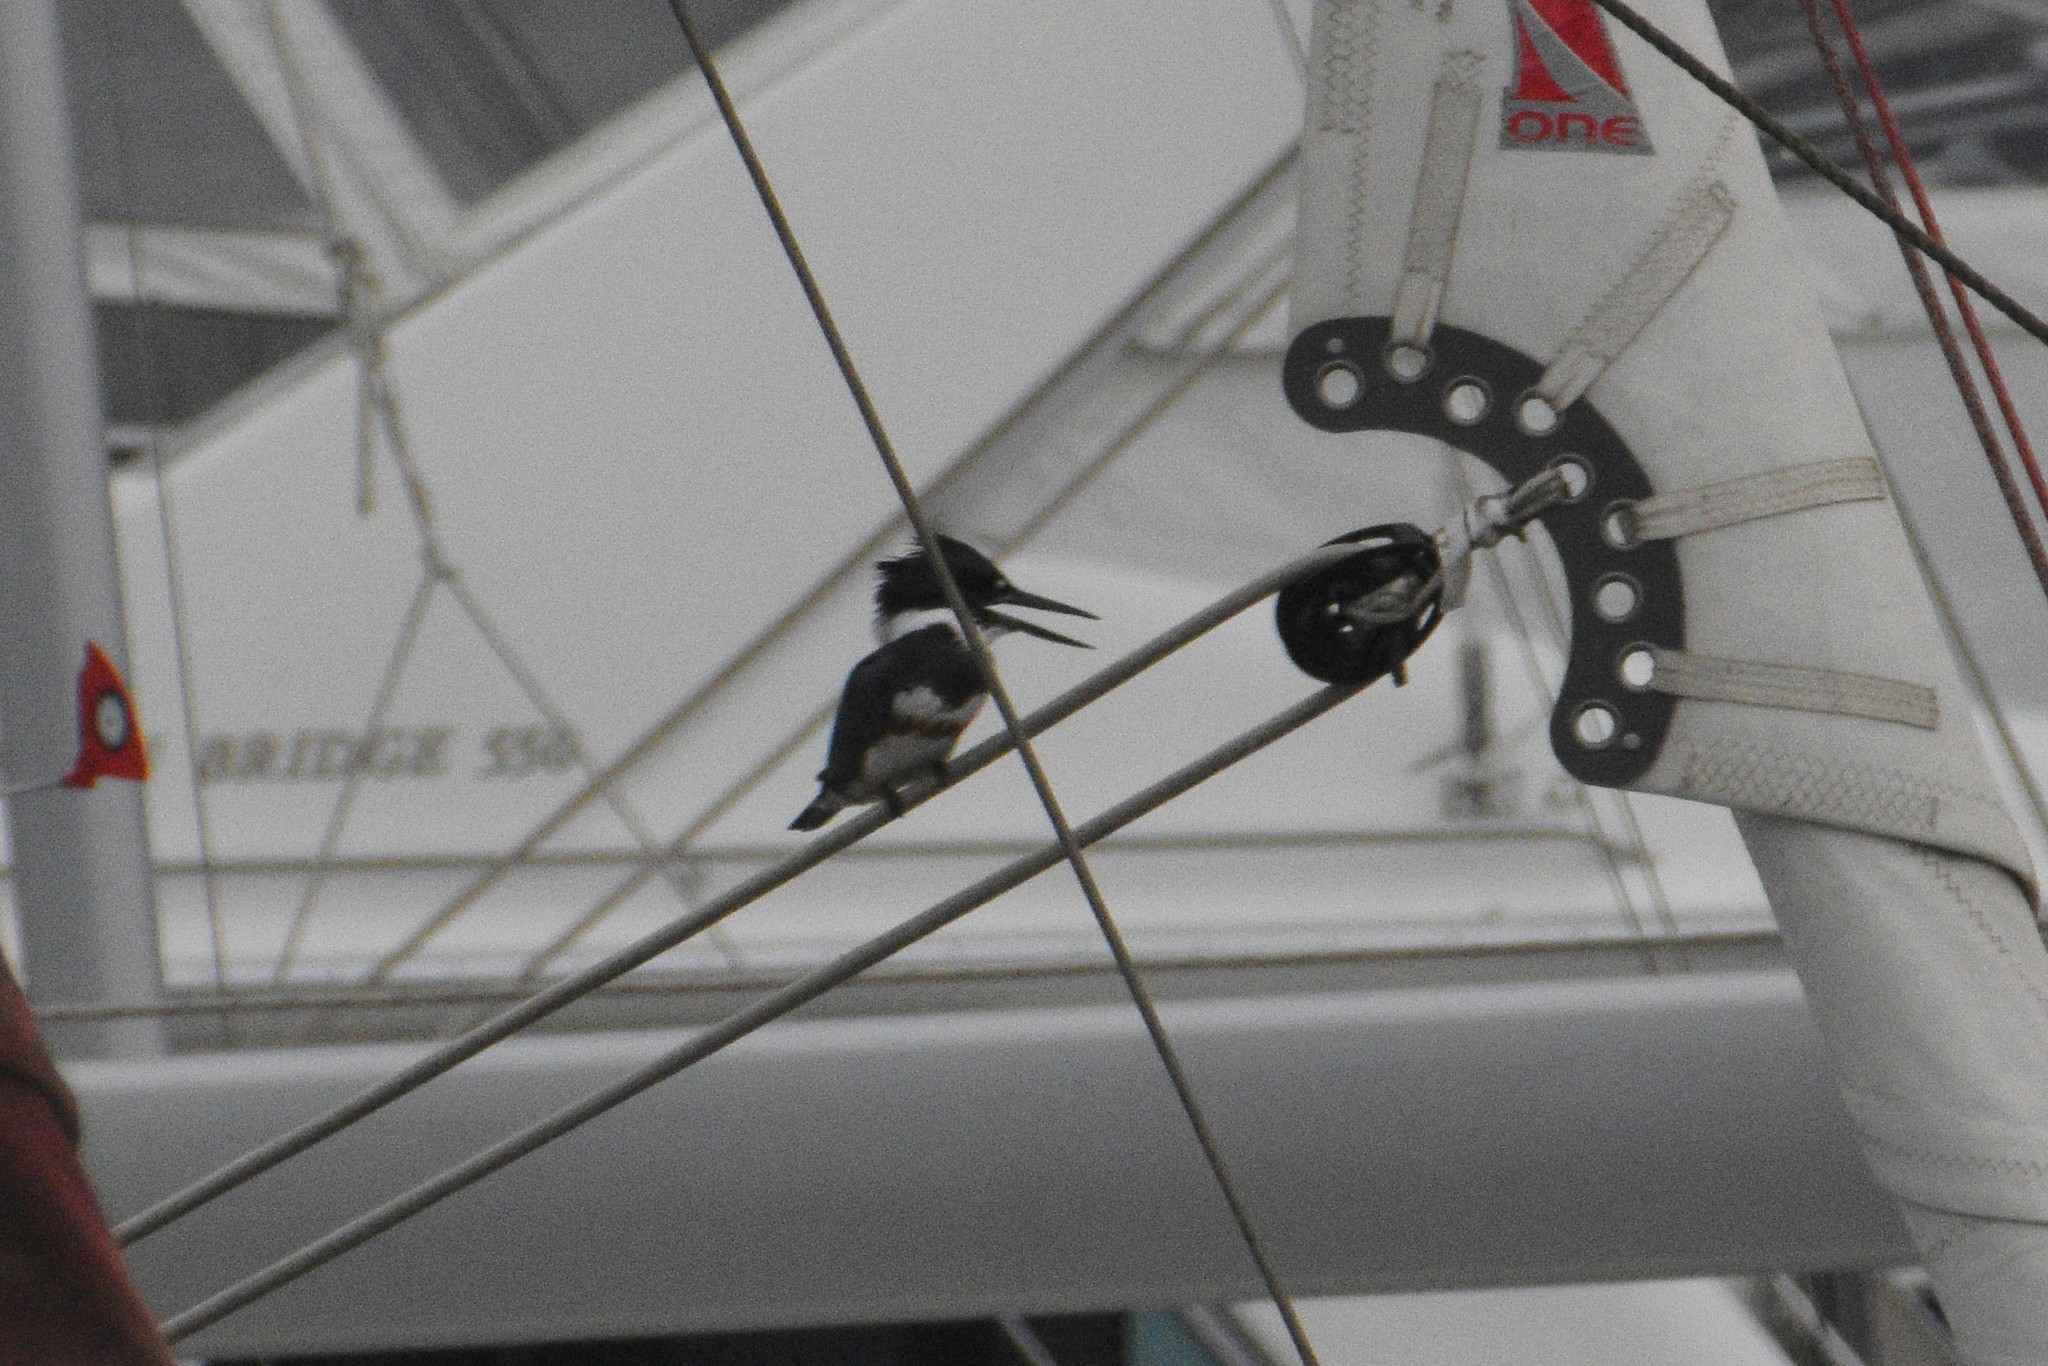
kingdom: Animalia
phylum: Chordata
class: Aves
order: Coraciiformes
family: Alcedinidae
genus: Megaceryle
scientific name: Megaceryle alcyon
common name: Belted kingfisher
